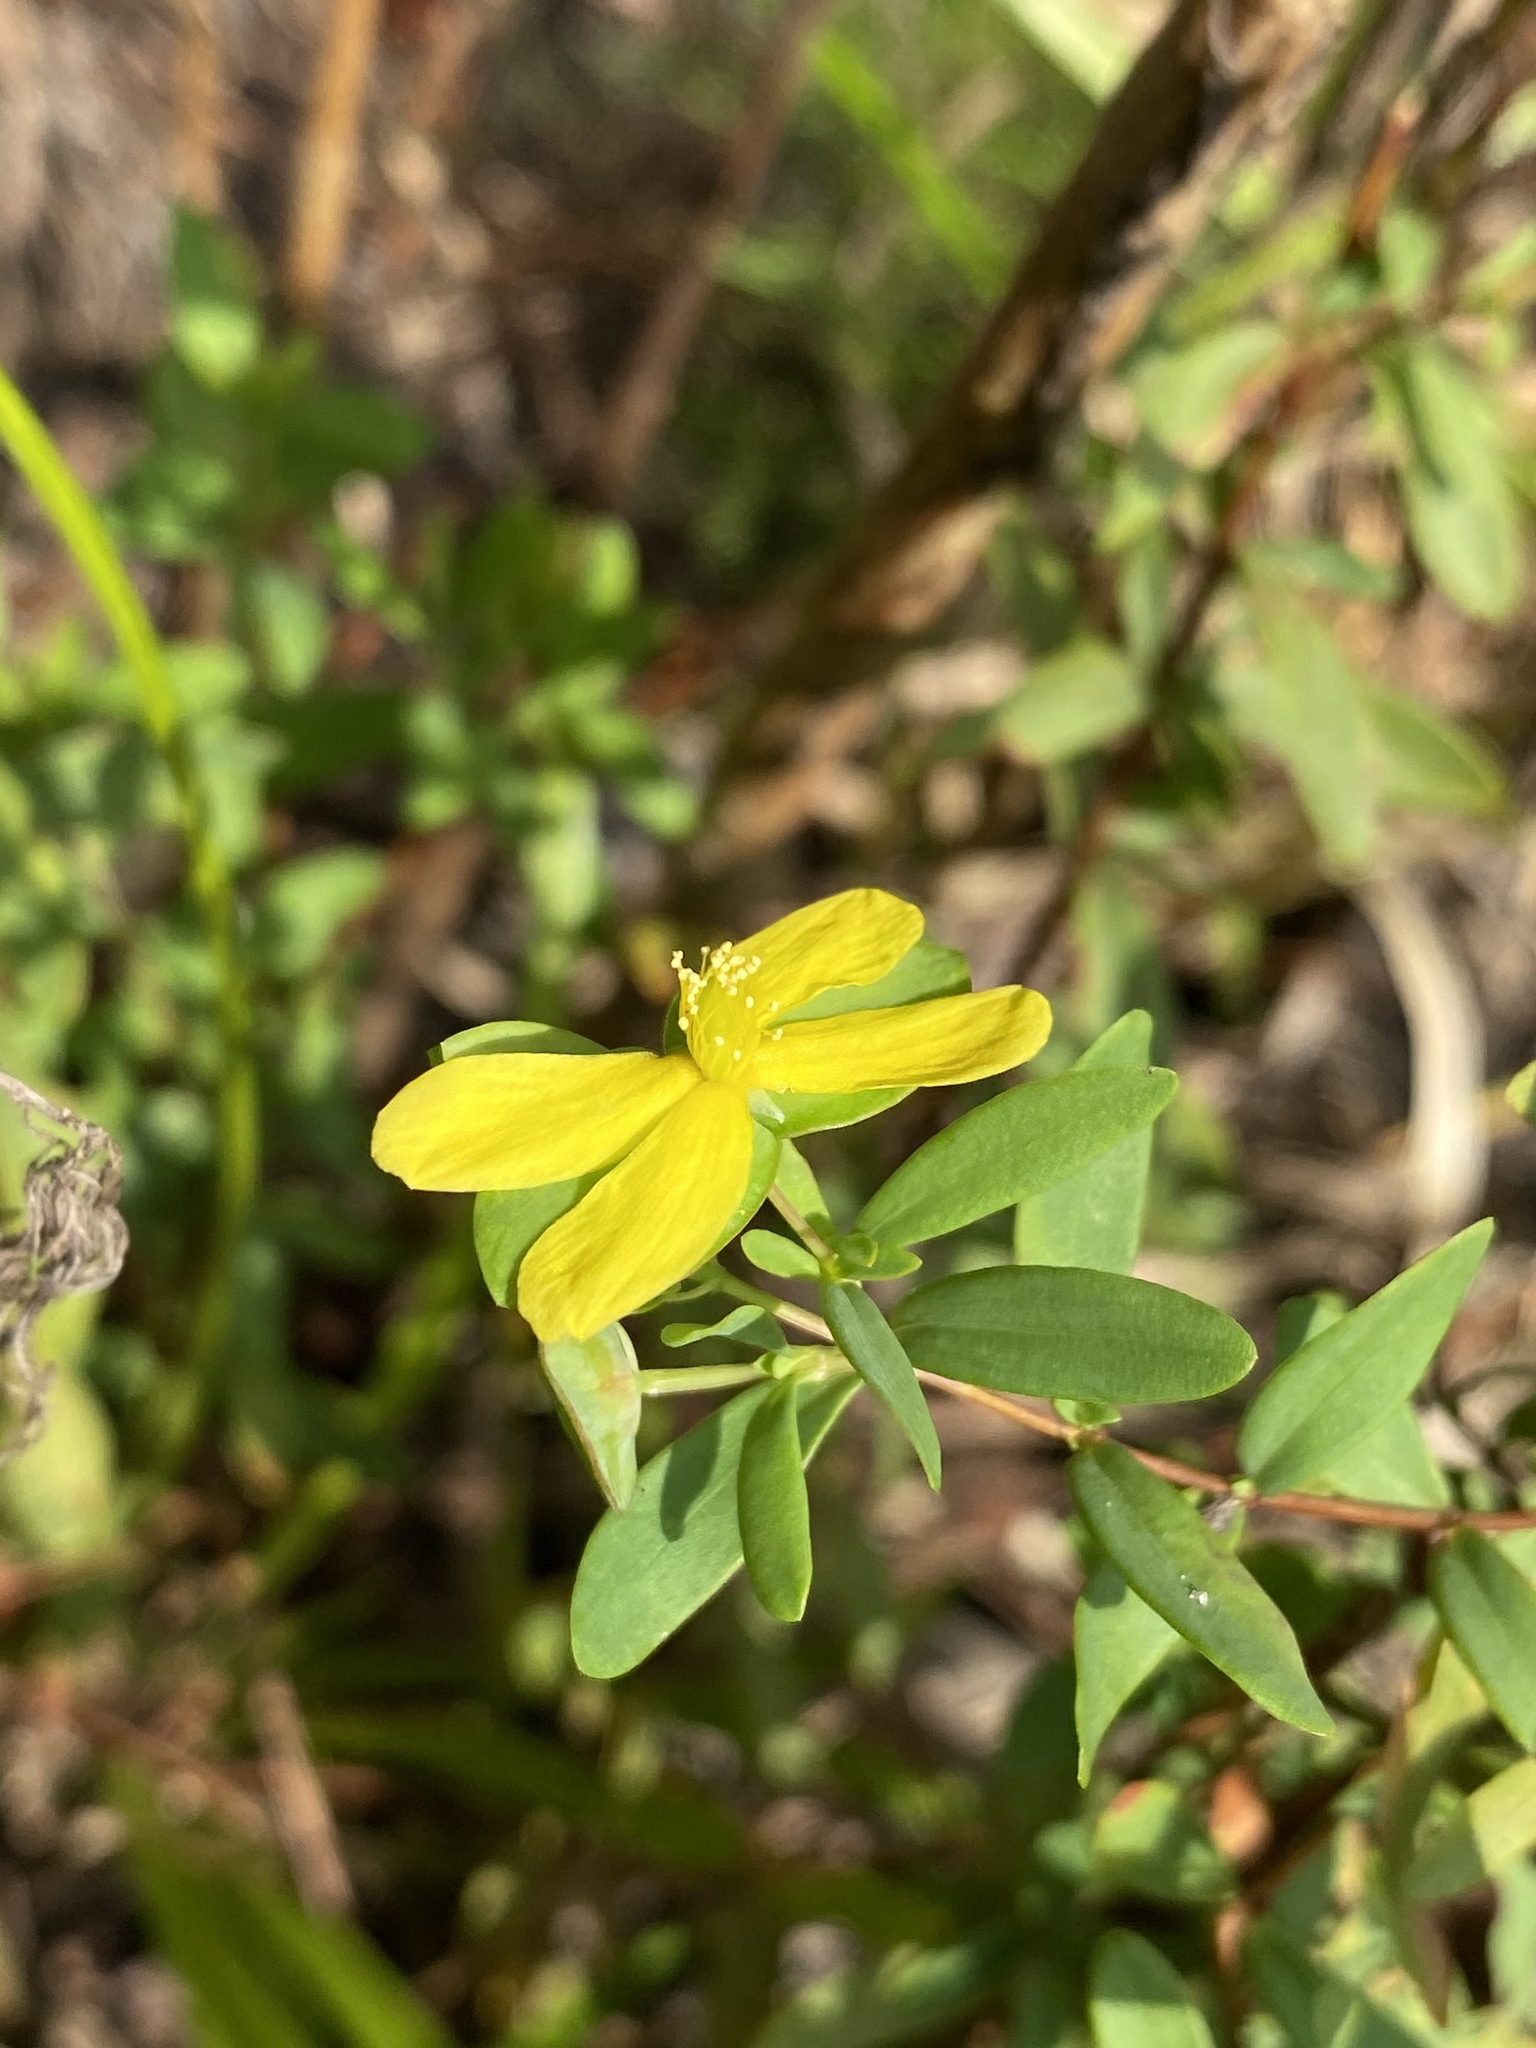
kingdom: Plantae
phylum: Tracheophyta
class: Magnoliopsida
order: Malpighiales
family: Hypericaceae
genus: Hypericum
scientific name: Hypericum hypericoides
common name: St. andrew's cross
